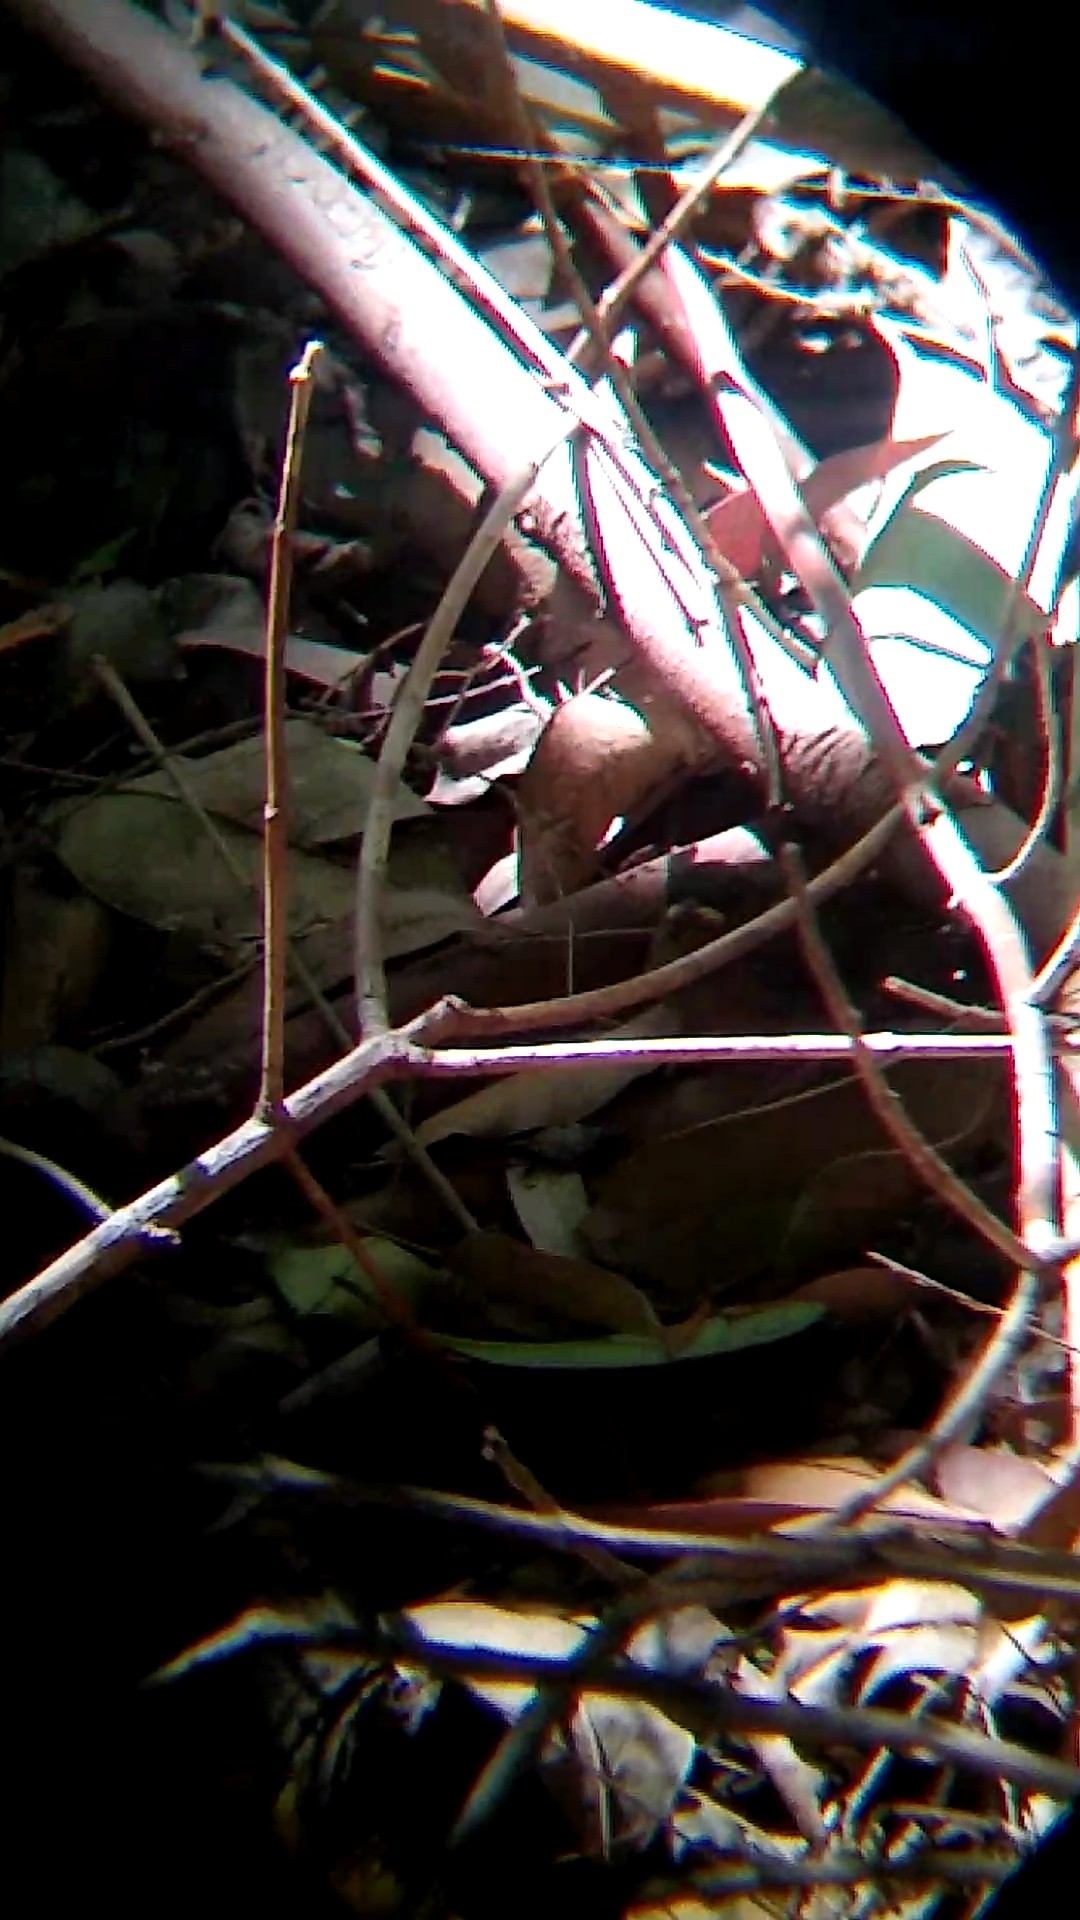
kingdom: Animalia
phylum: Chordata
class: Aves
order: Passeriformes
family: Parulidae
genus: Basileuterus
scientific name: Basileuterus culicivorus
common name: Golden-crowned warbler
